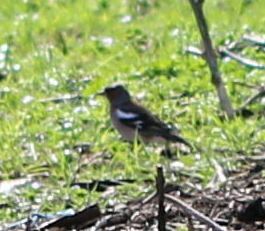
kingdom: Animalia
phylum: Chordata
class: Aves
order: Passeriformes
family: Fringillidae
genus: Fringilla
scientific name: Fringilla coelebs
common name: Common chaffinch
